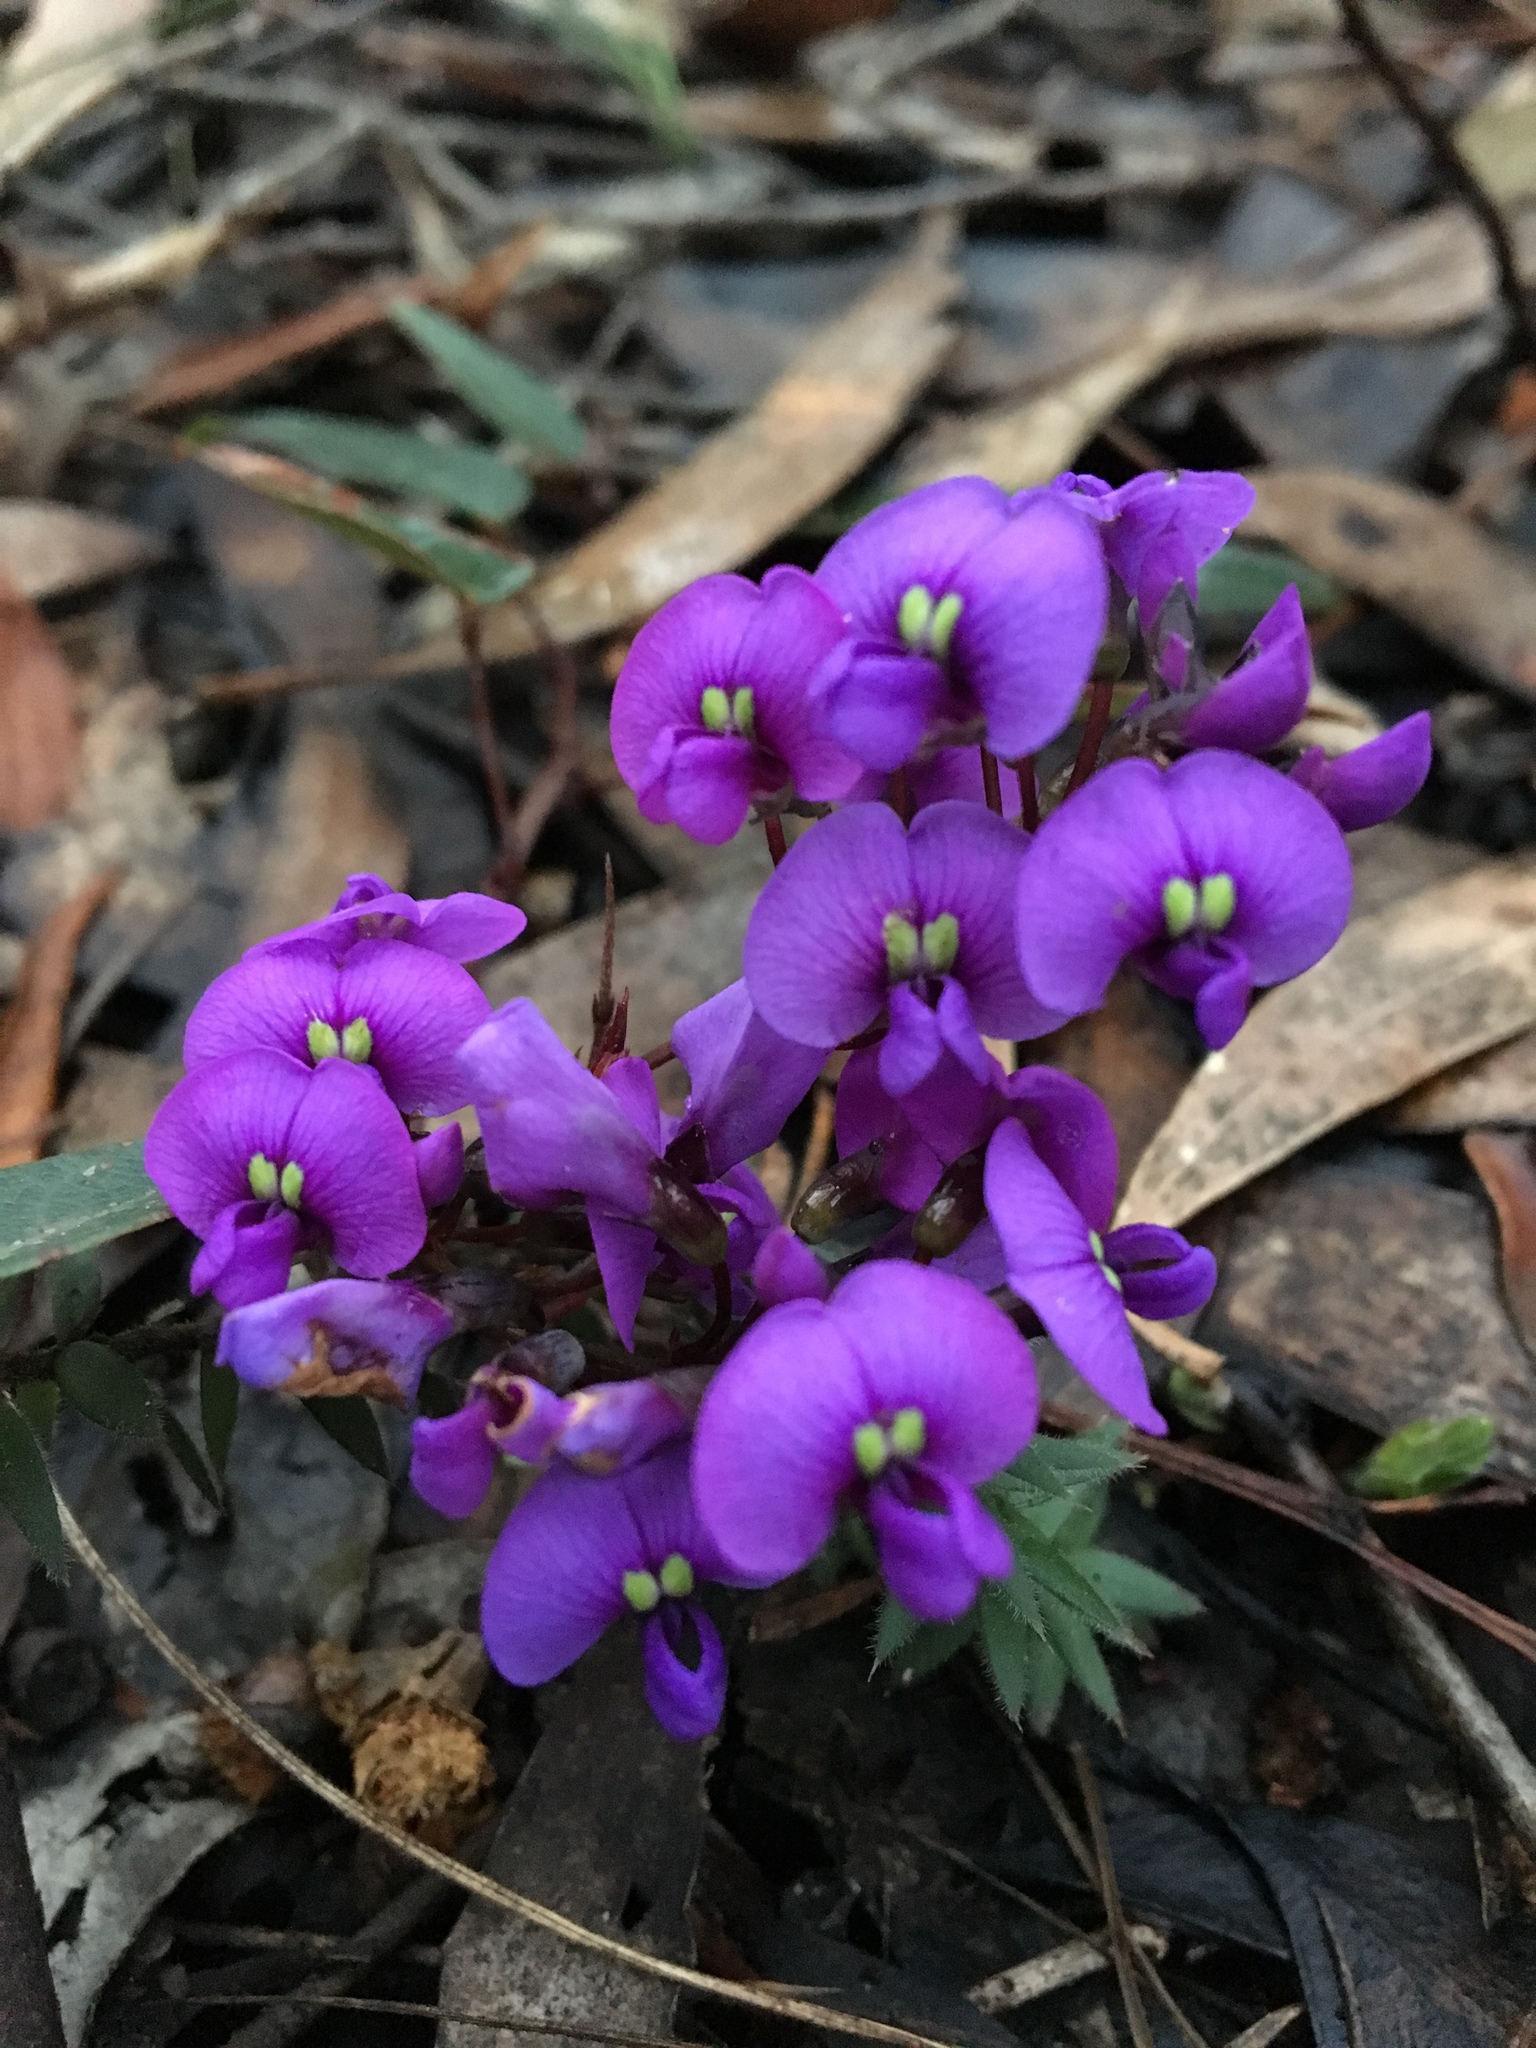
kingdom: Plantae
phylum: Tracheophyta
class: Magnoliopsida
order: Fabales
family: Fabaceae
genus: Hardenbergia
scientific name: Hardenbergia violacea
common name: Coral-pea
